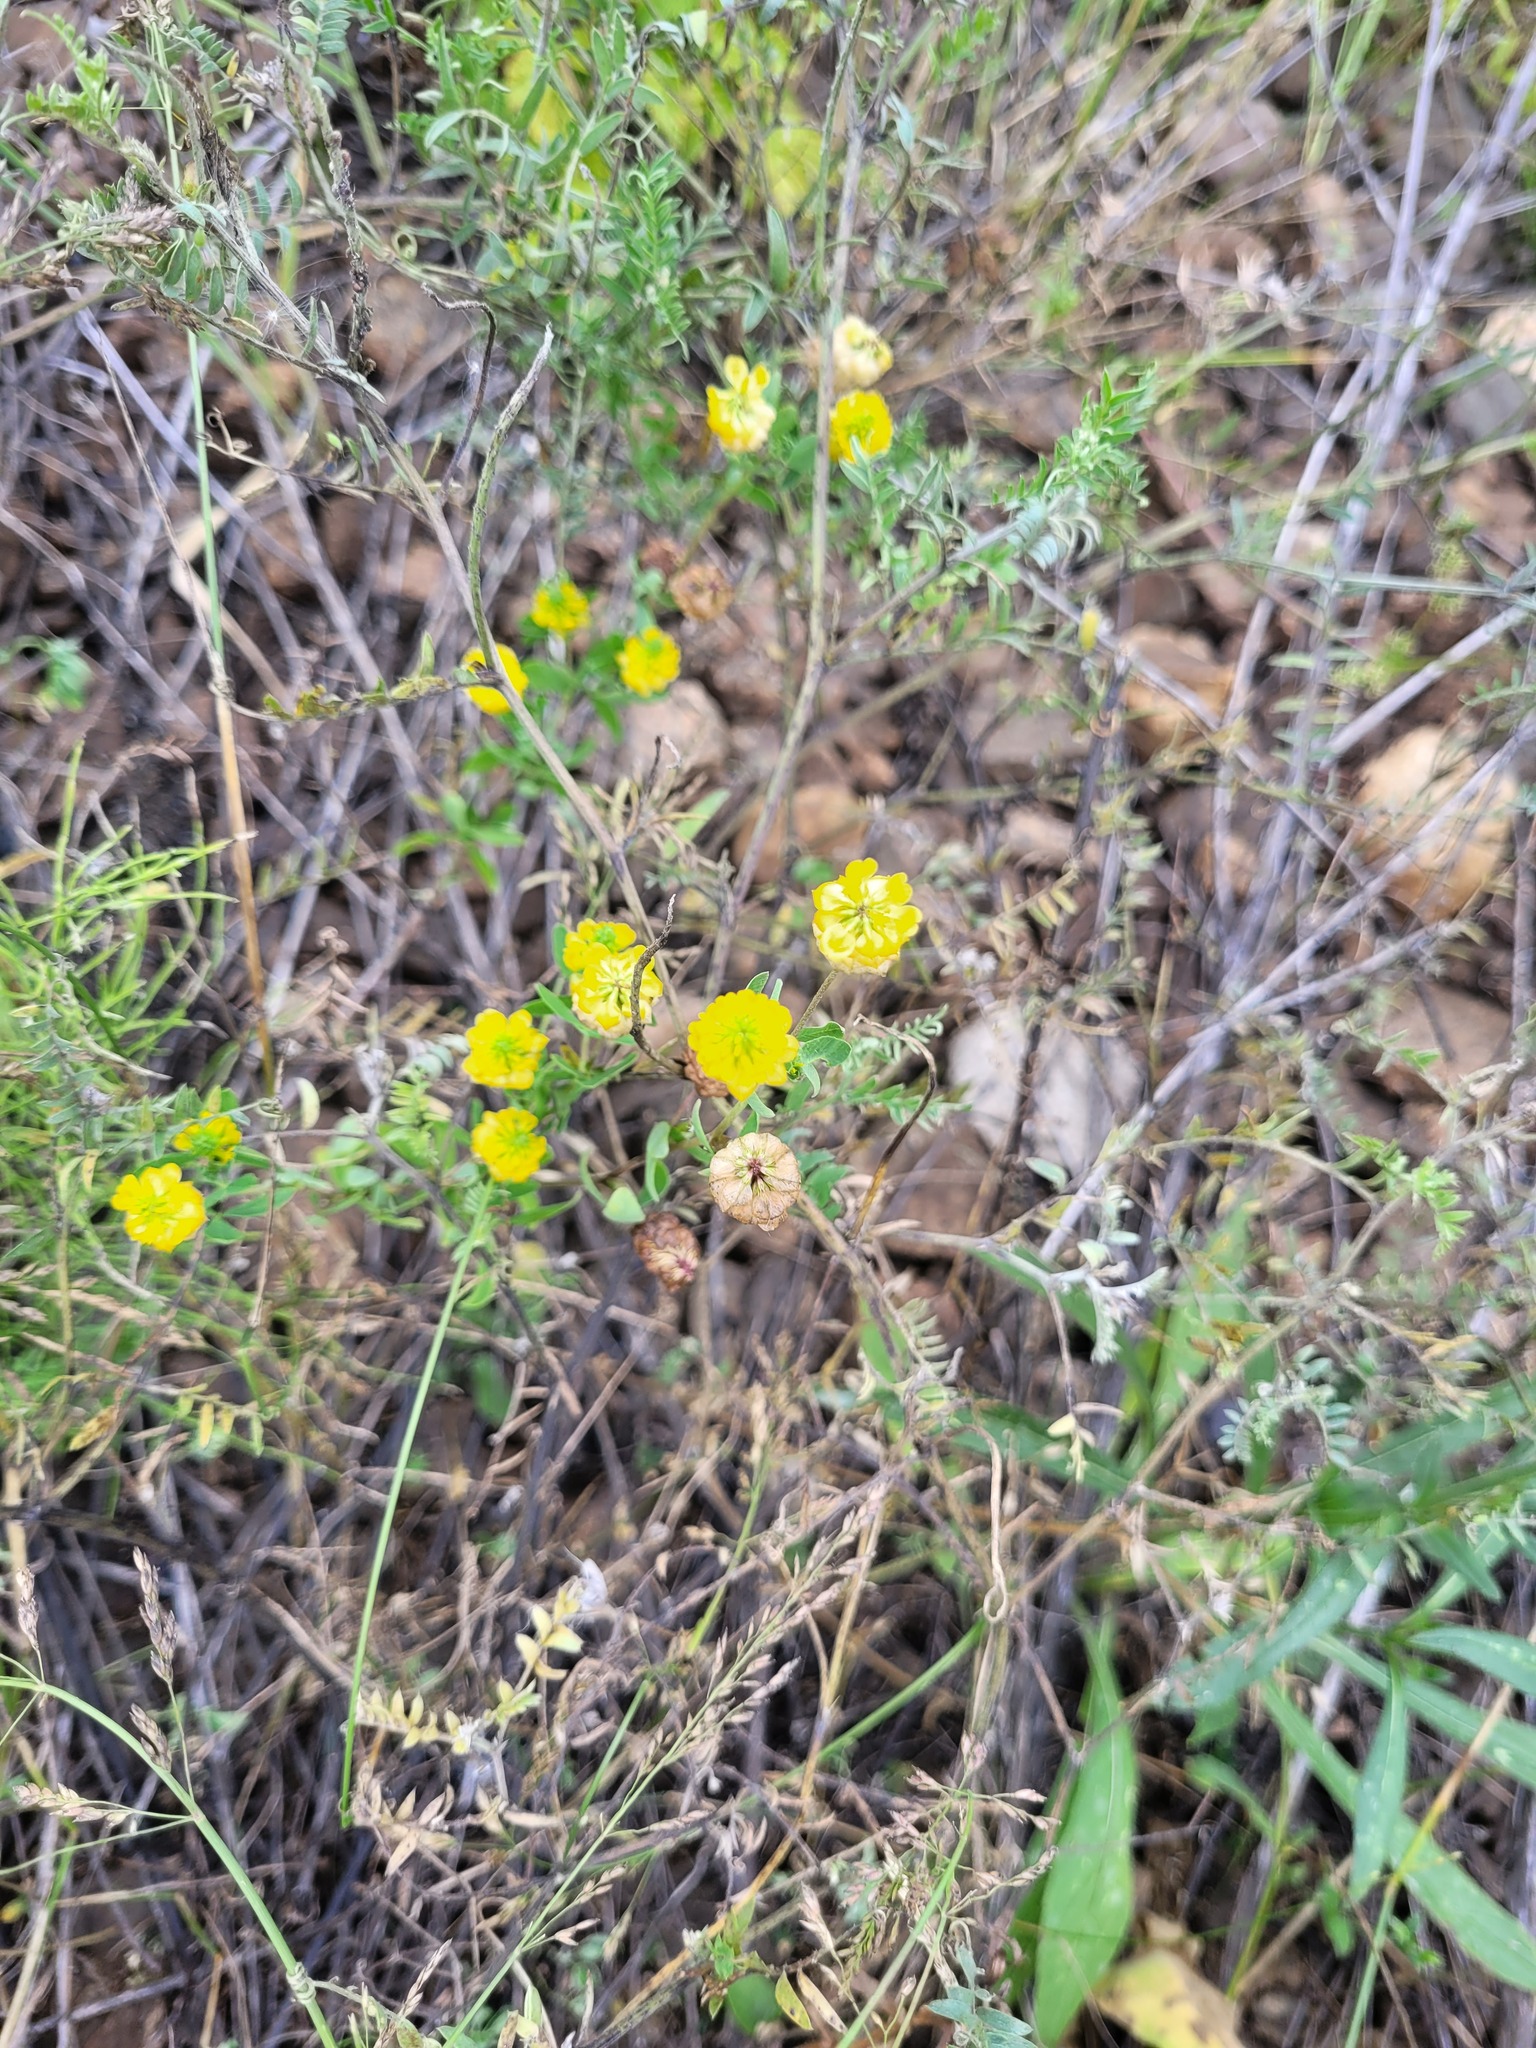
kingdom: Plantae
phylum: Tracheophyta
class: Magnoliopsida
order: Fabales
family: Fabaceae
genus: Trifolium
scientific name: Trifolium aureum
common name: Golden clover
